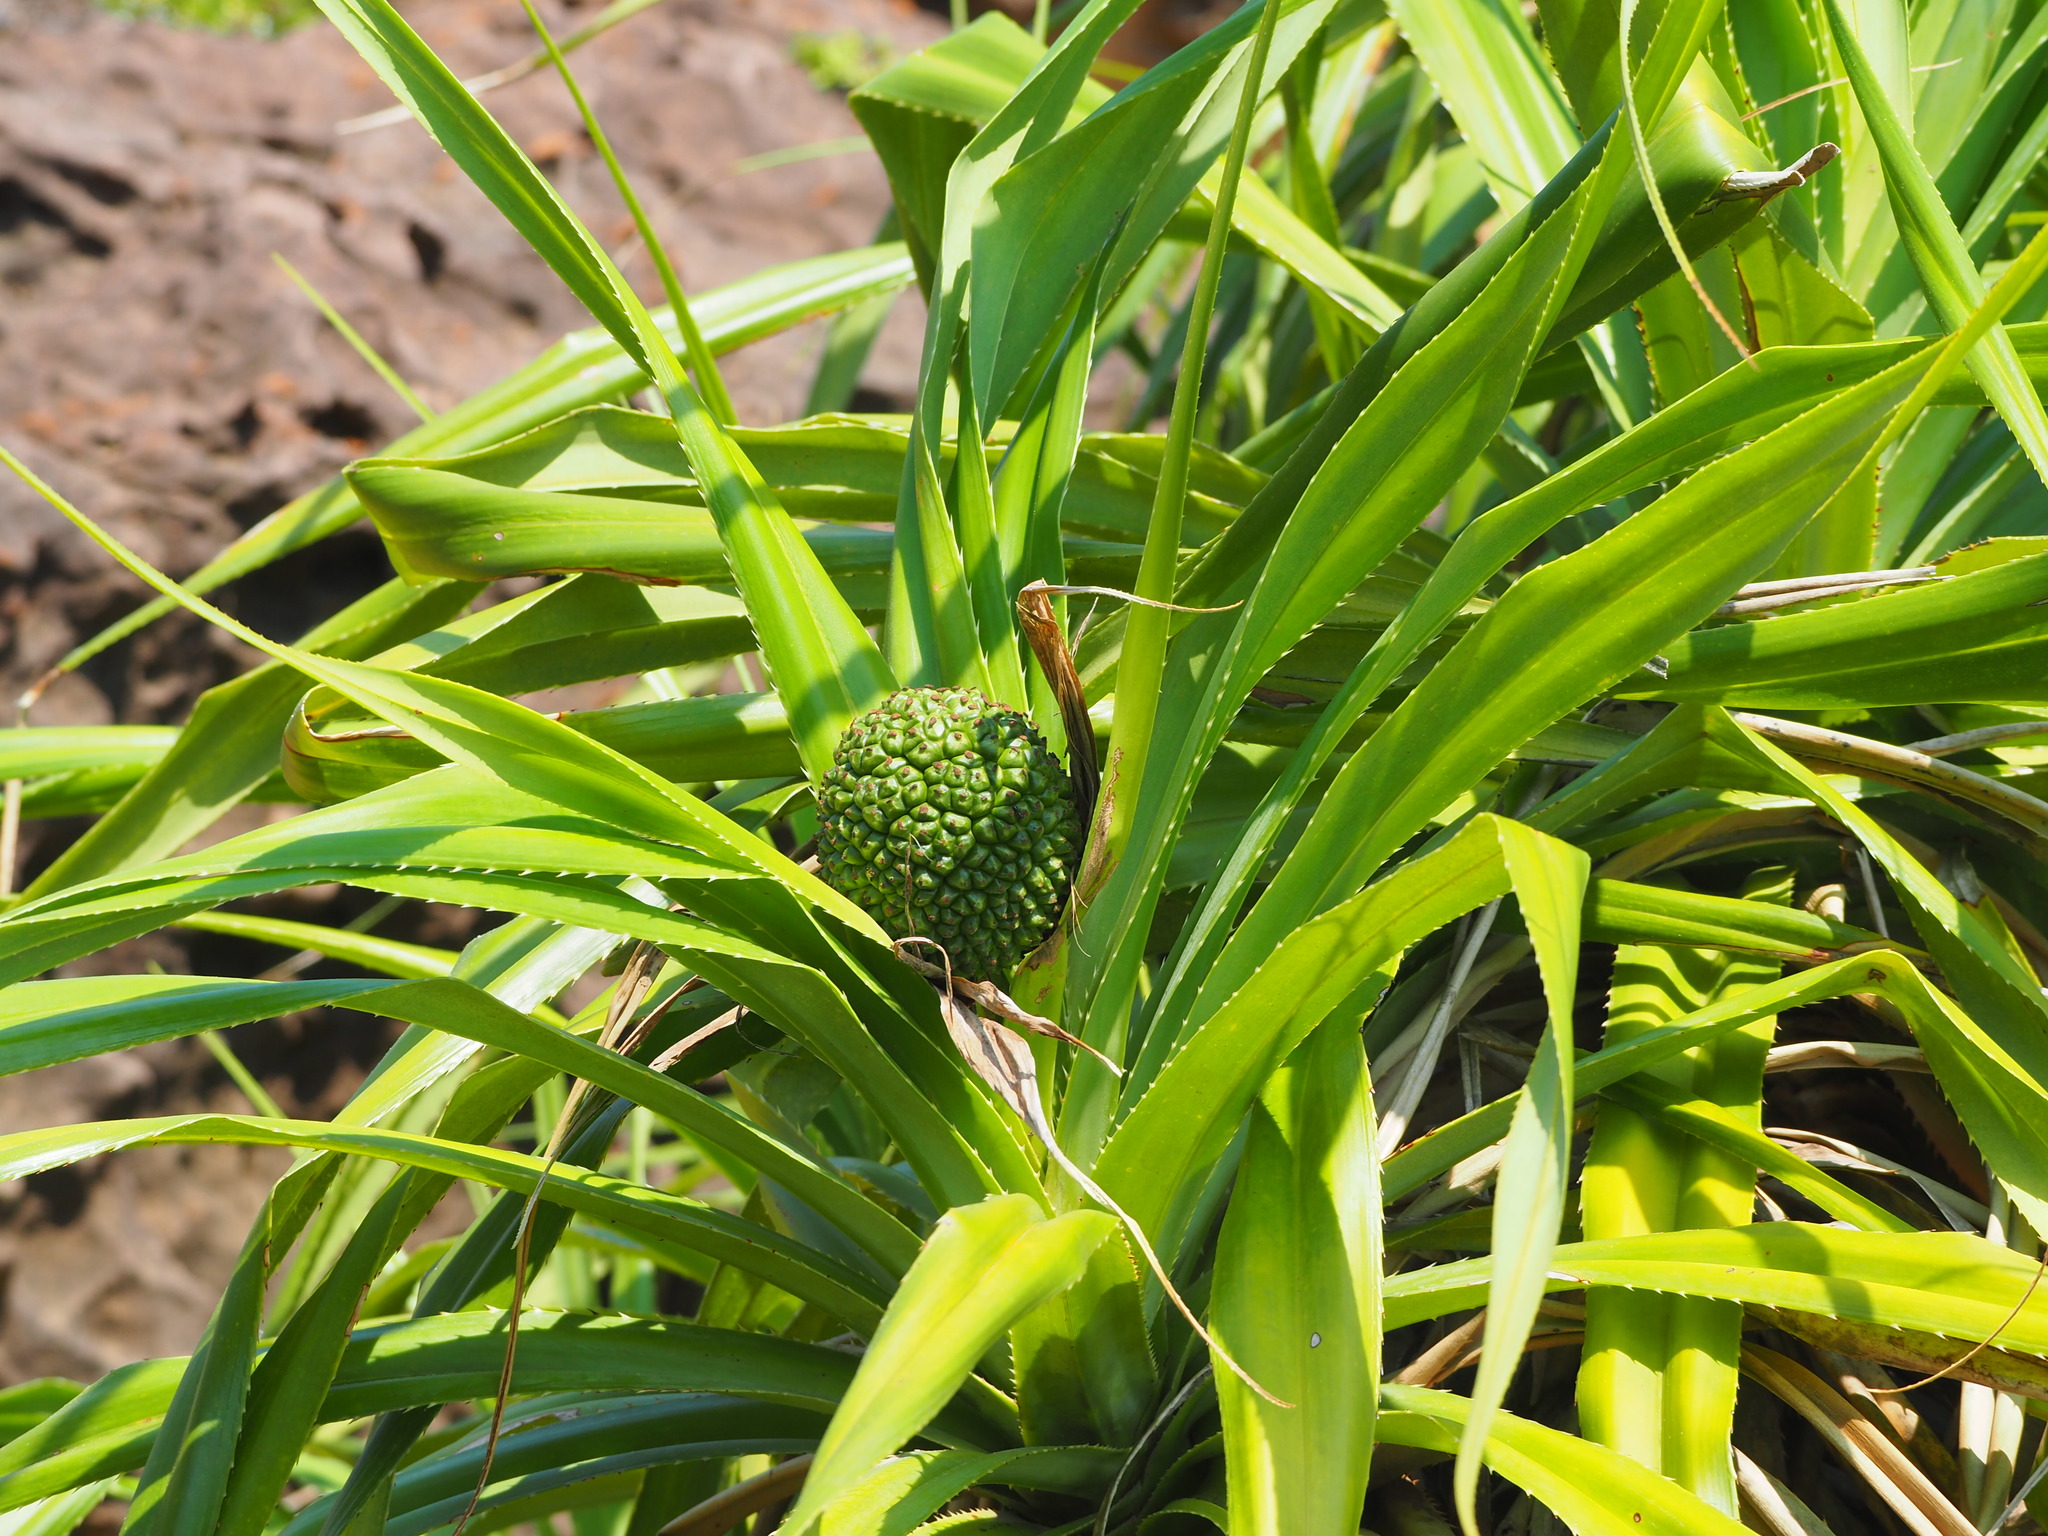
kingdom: Plantae
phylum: Tracheophyta
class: Liliopsida
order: Pandanales
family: Pandanaceae
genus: Pandanus
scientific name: Pandanus odorifer
